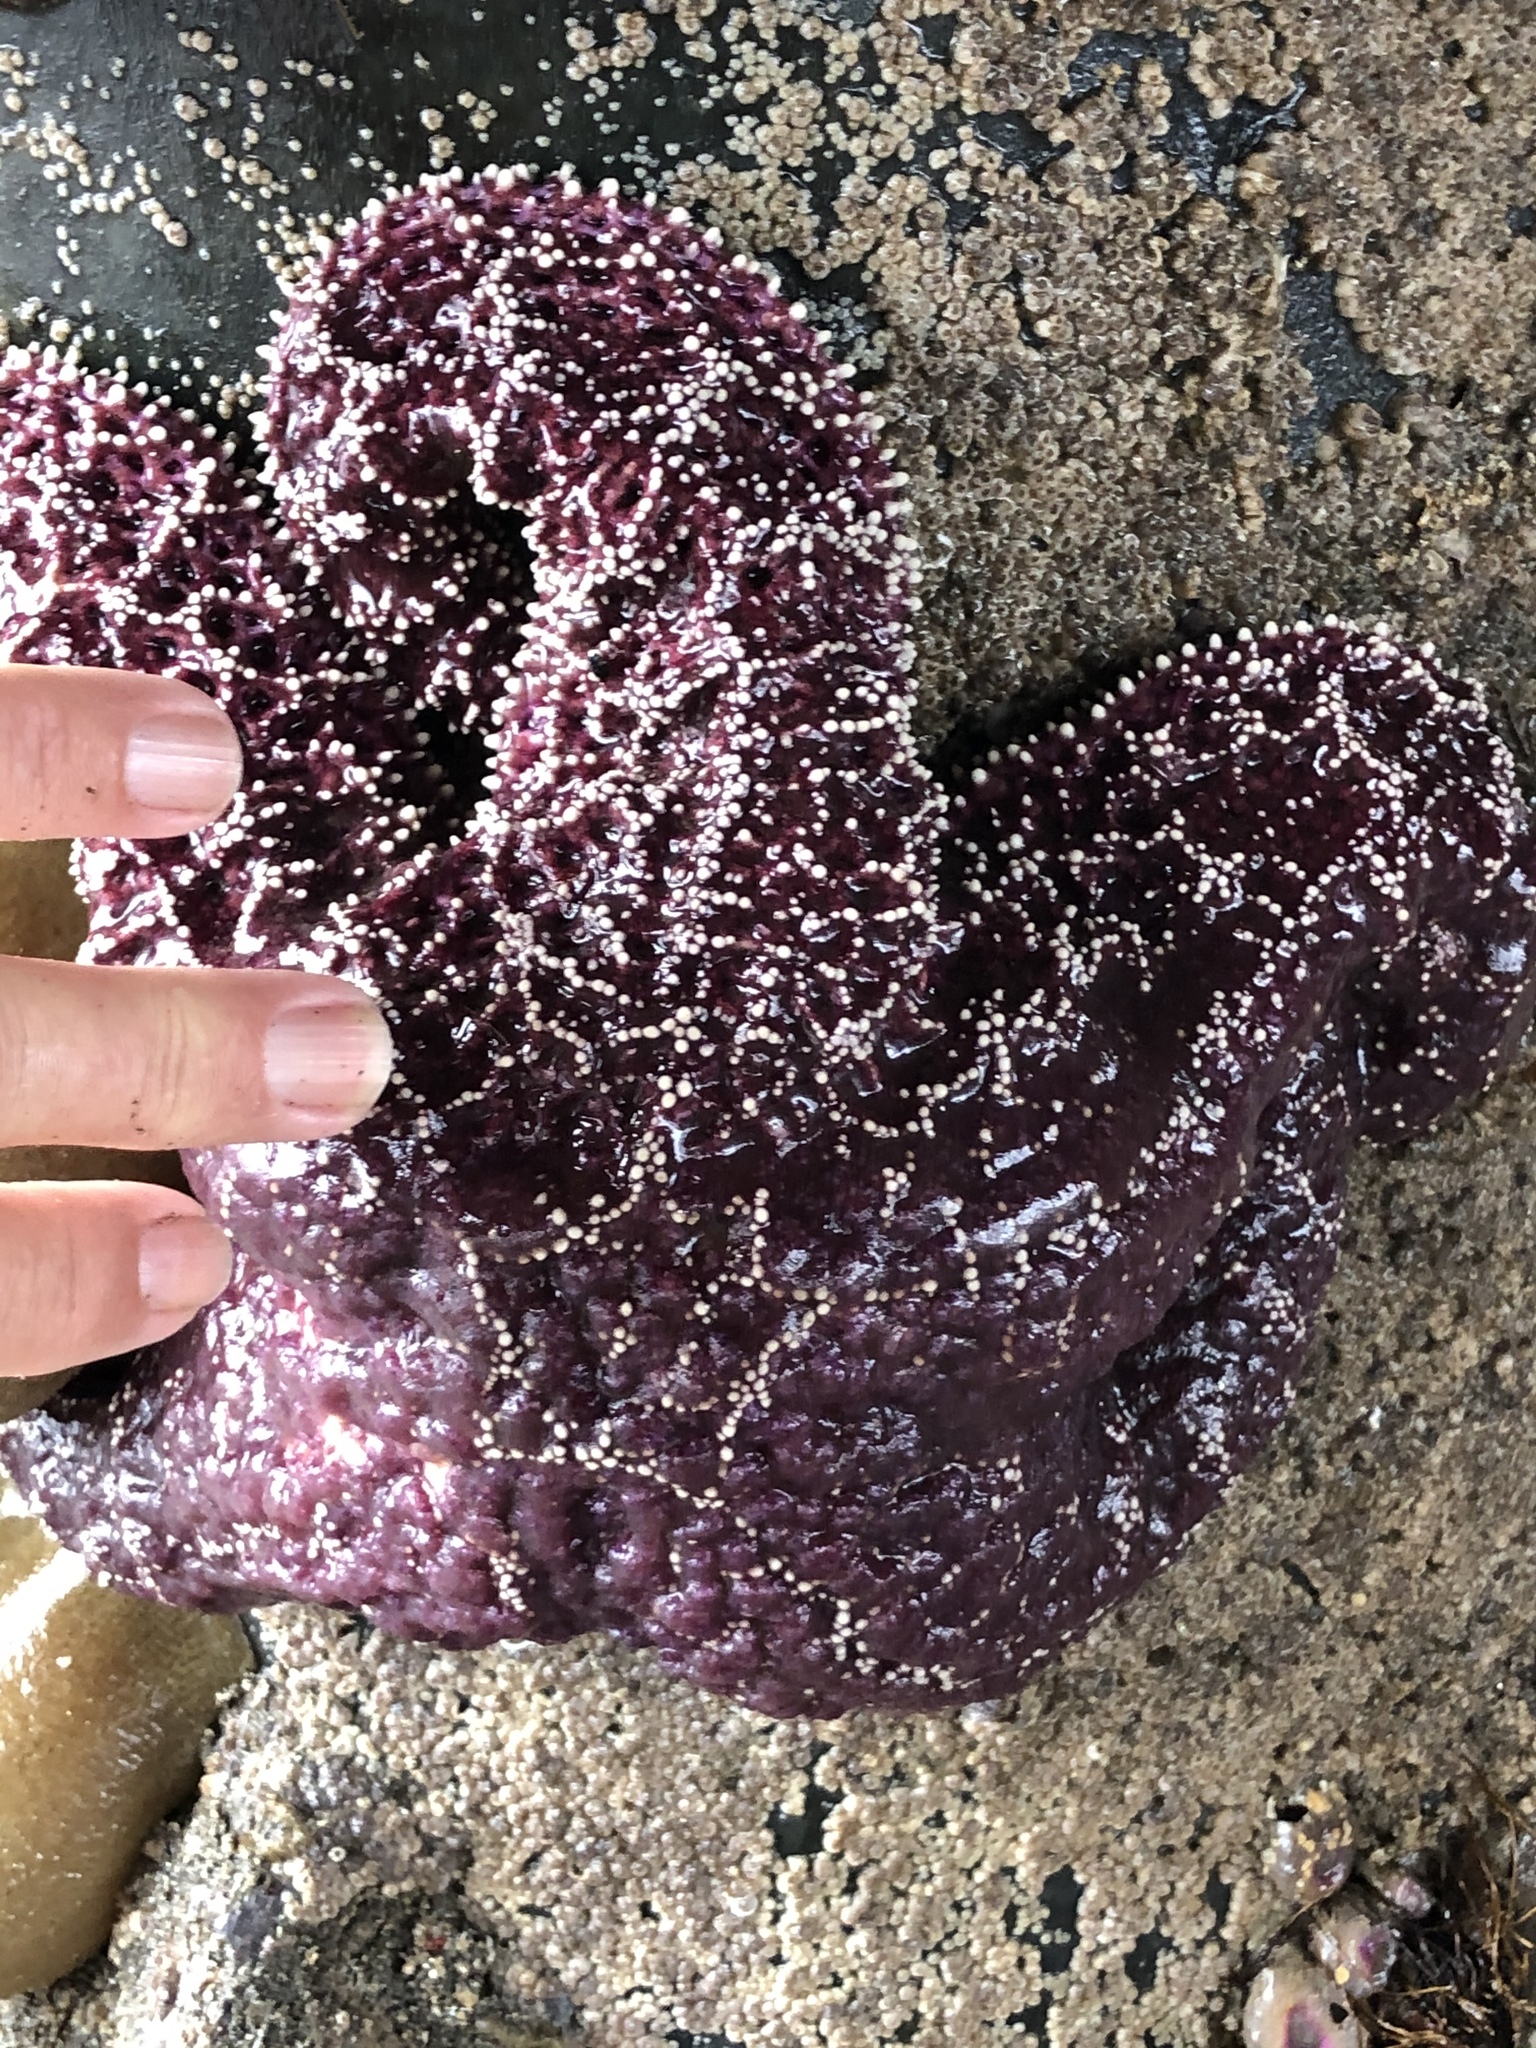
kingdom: Animalia
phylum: Echinodermata
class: Asteroidea
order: Forcipulatida
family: Asteriidae
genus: Pisaster
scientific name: Pisaster ochraceus
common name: Ochre stars
